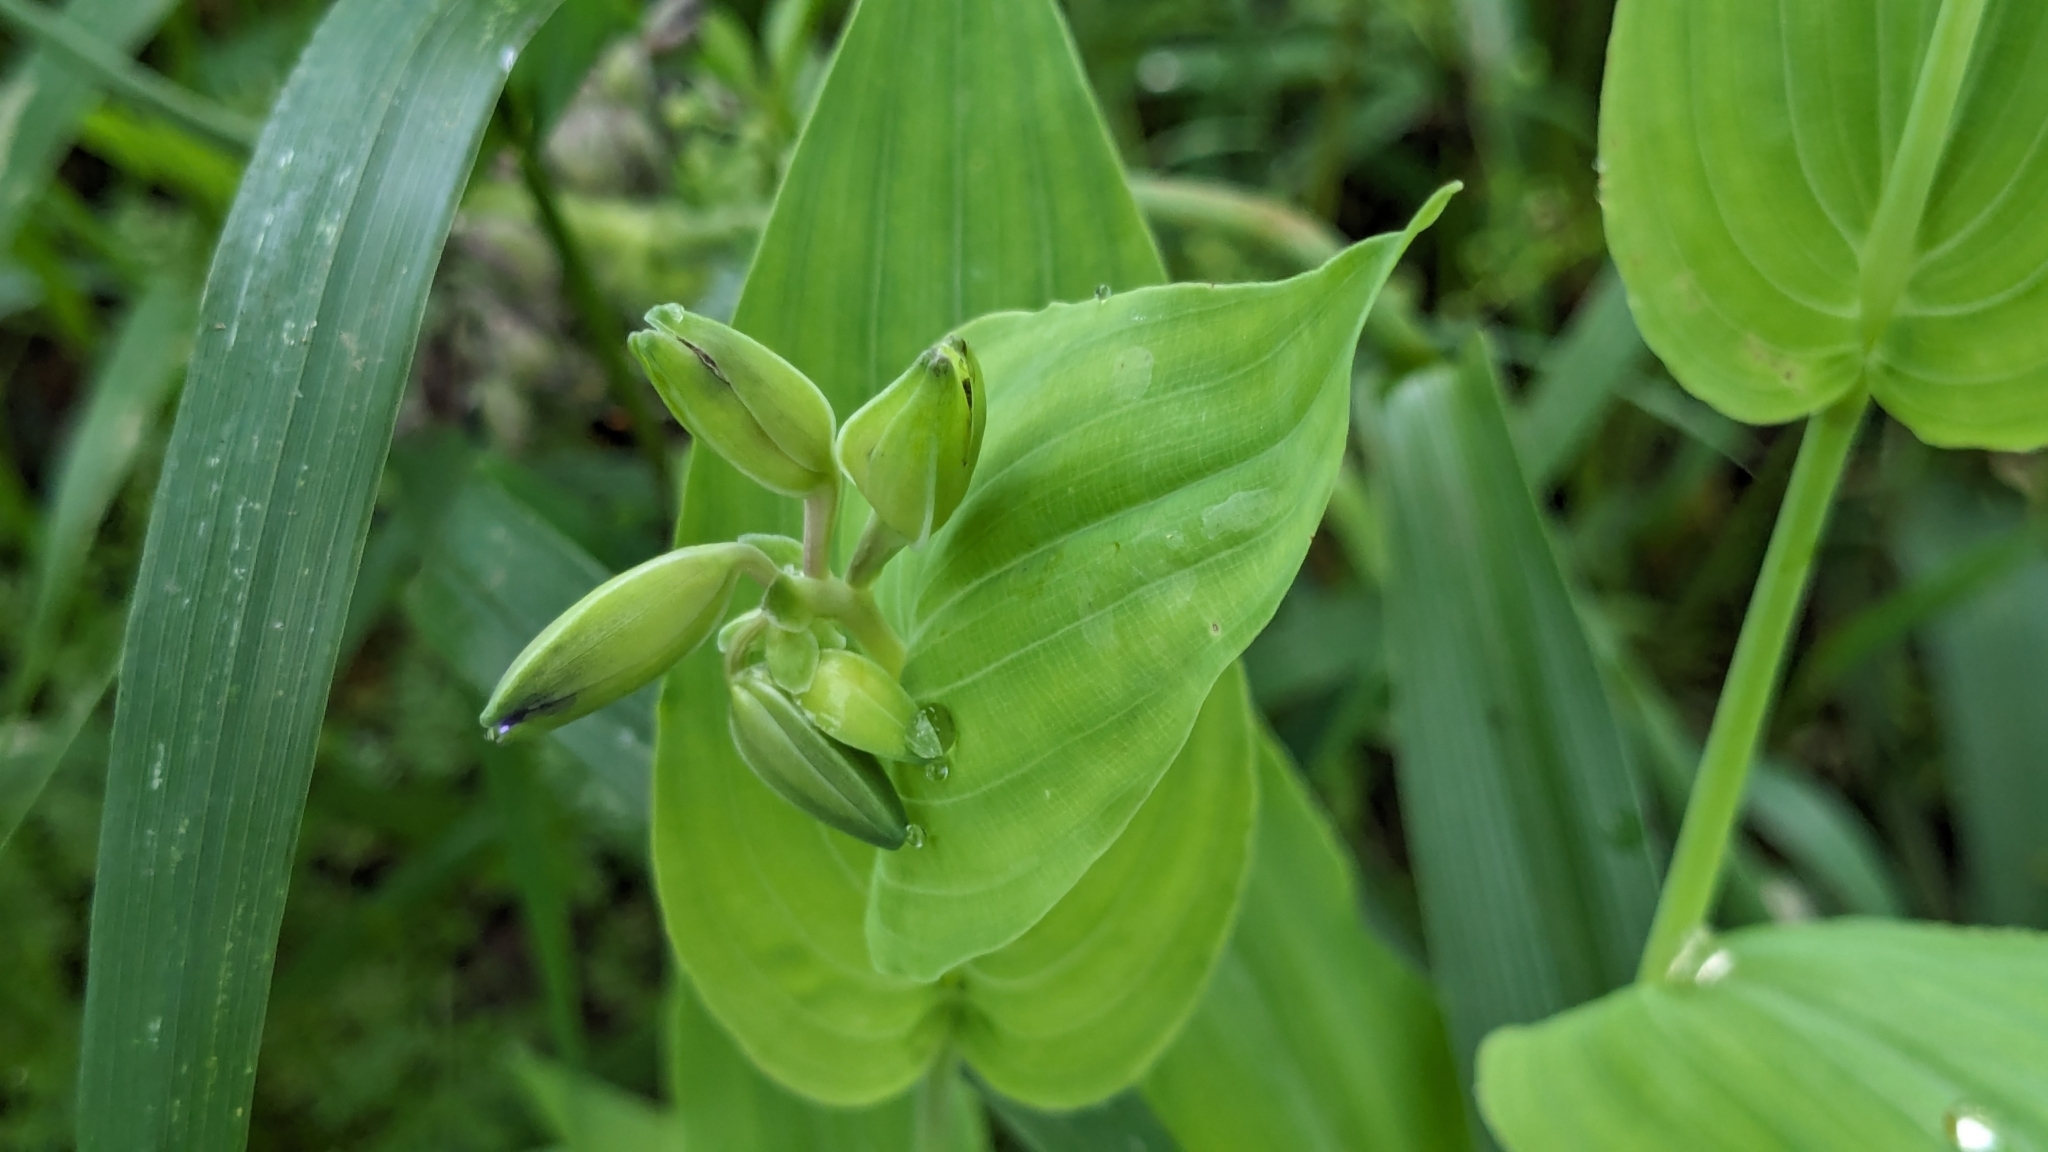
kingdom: Plantae
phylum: Tracheophyta
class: Liliopsida
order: Commelinales
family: Commelinaceae
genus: Tinantia
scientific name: Tinantia anomala
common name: False dayflower
